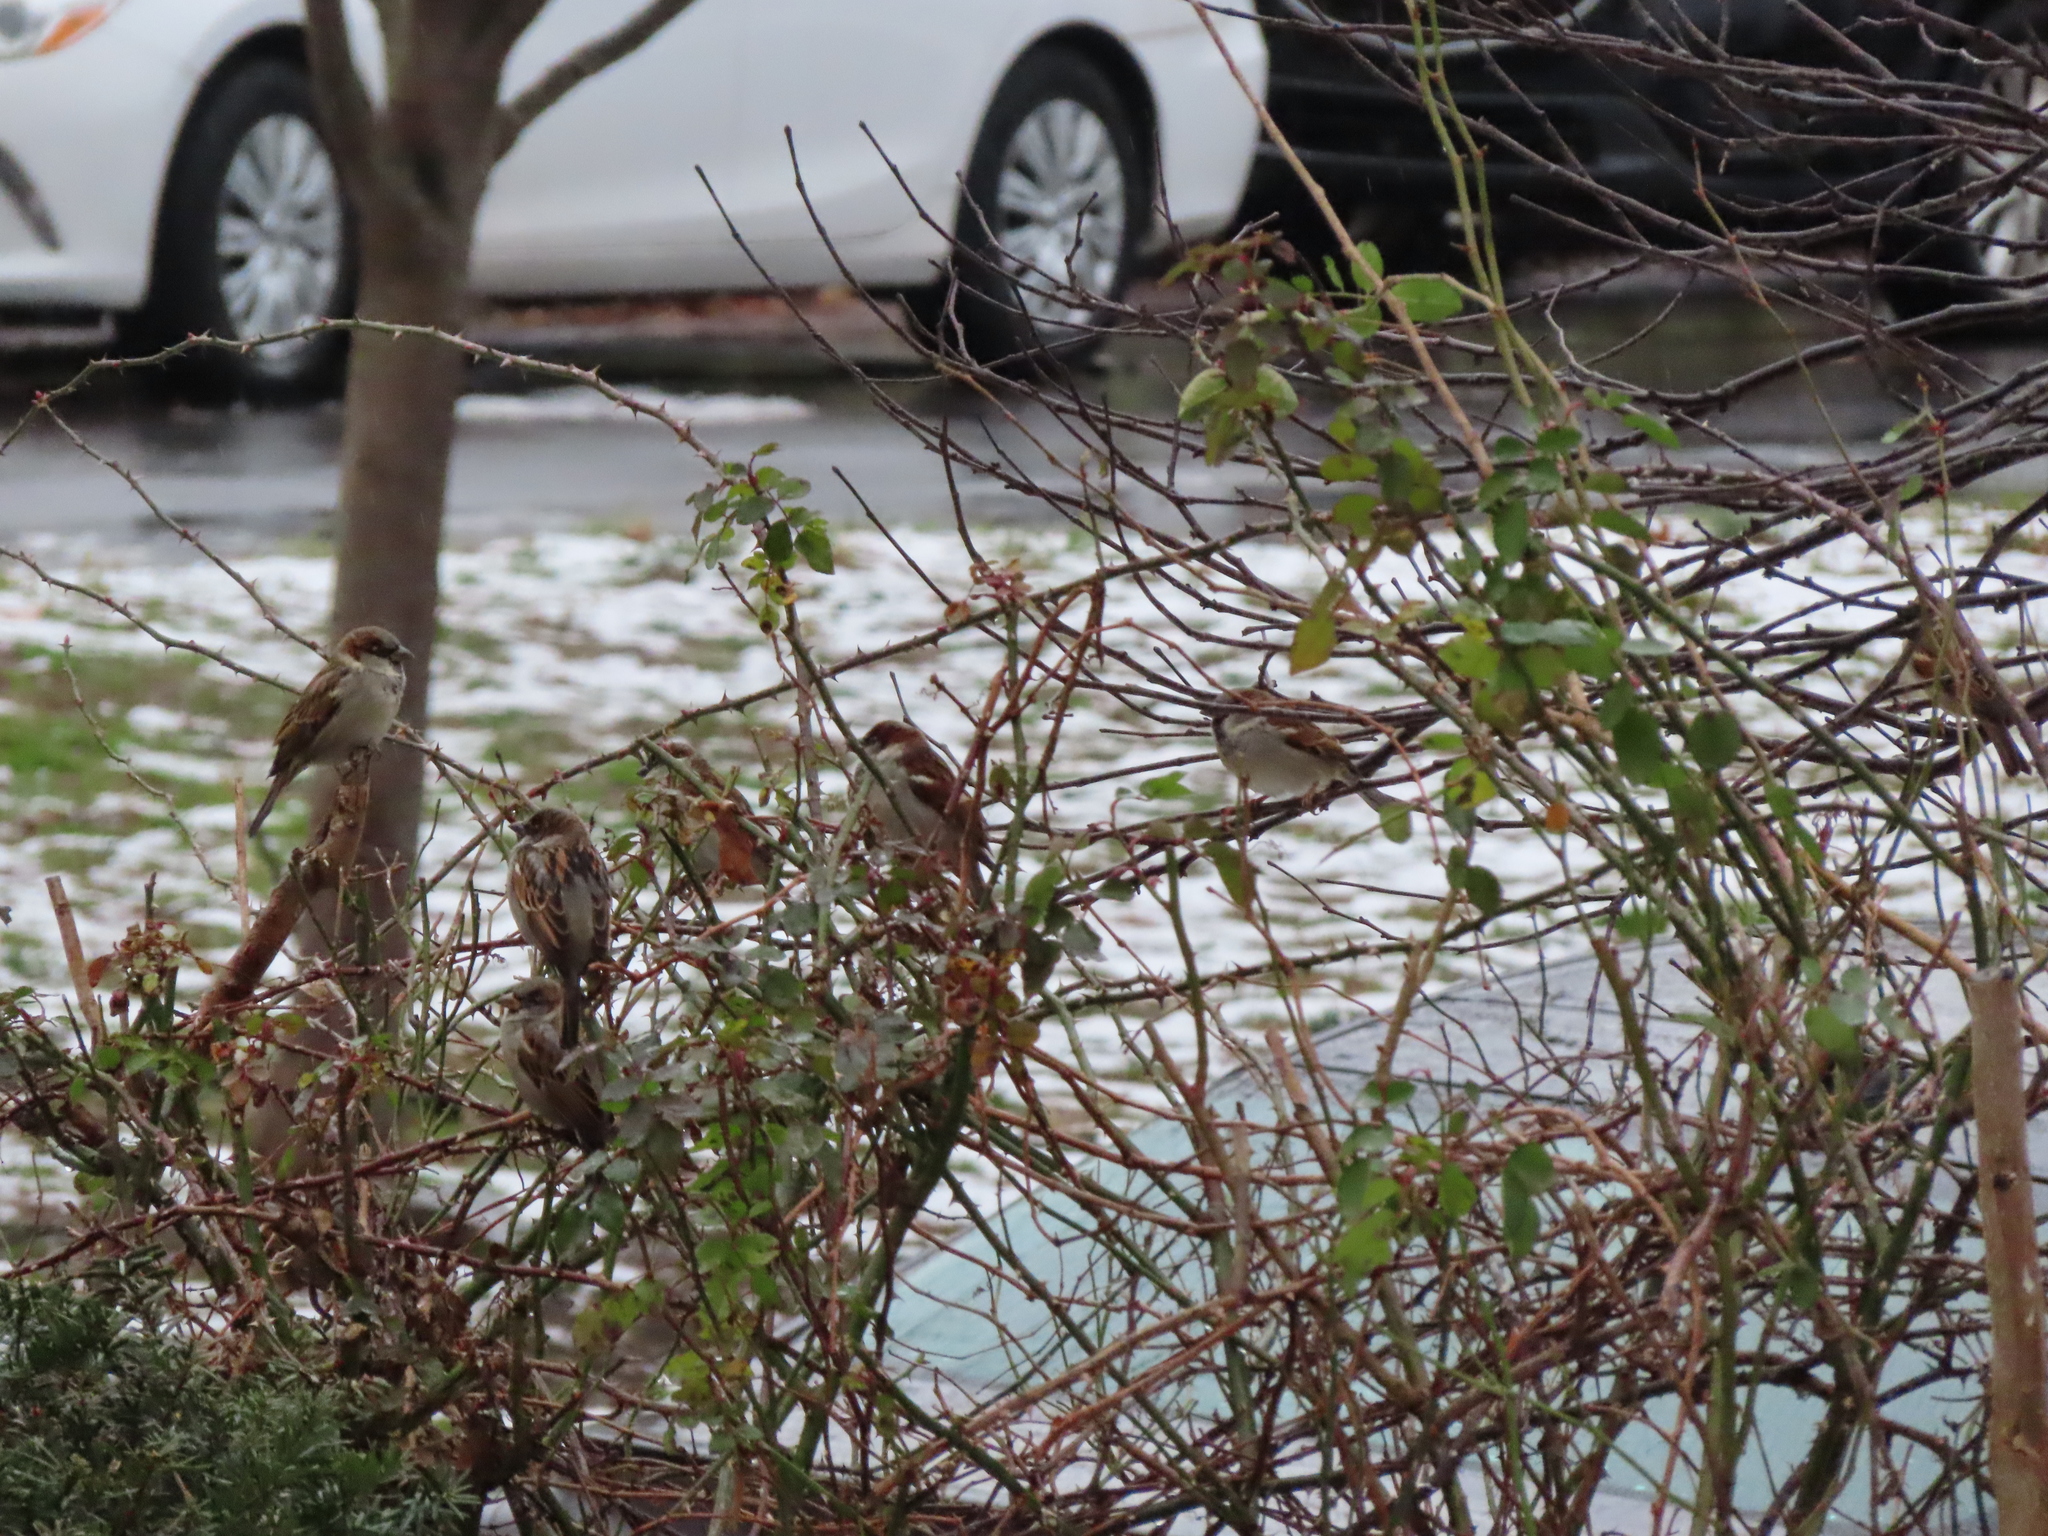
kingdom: Animalia
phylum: Chordata
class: Aves
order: Passeriformes
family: Passeridae
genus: Passer
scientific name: Passer domesticus
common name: House sparrow
